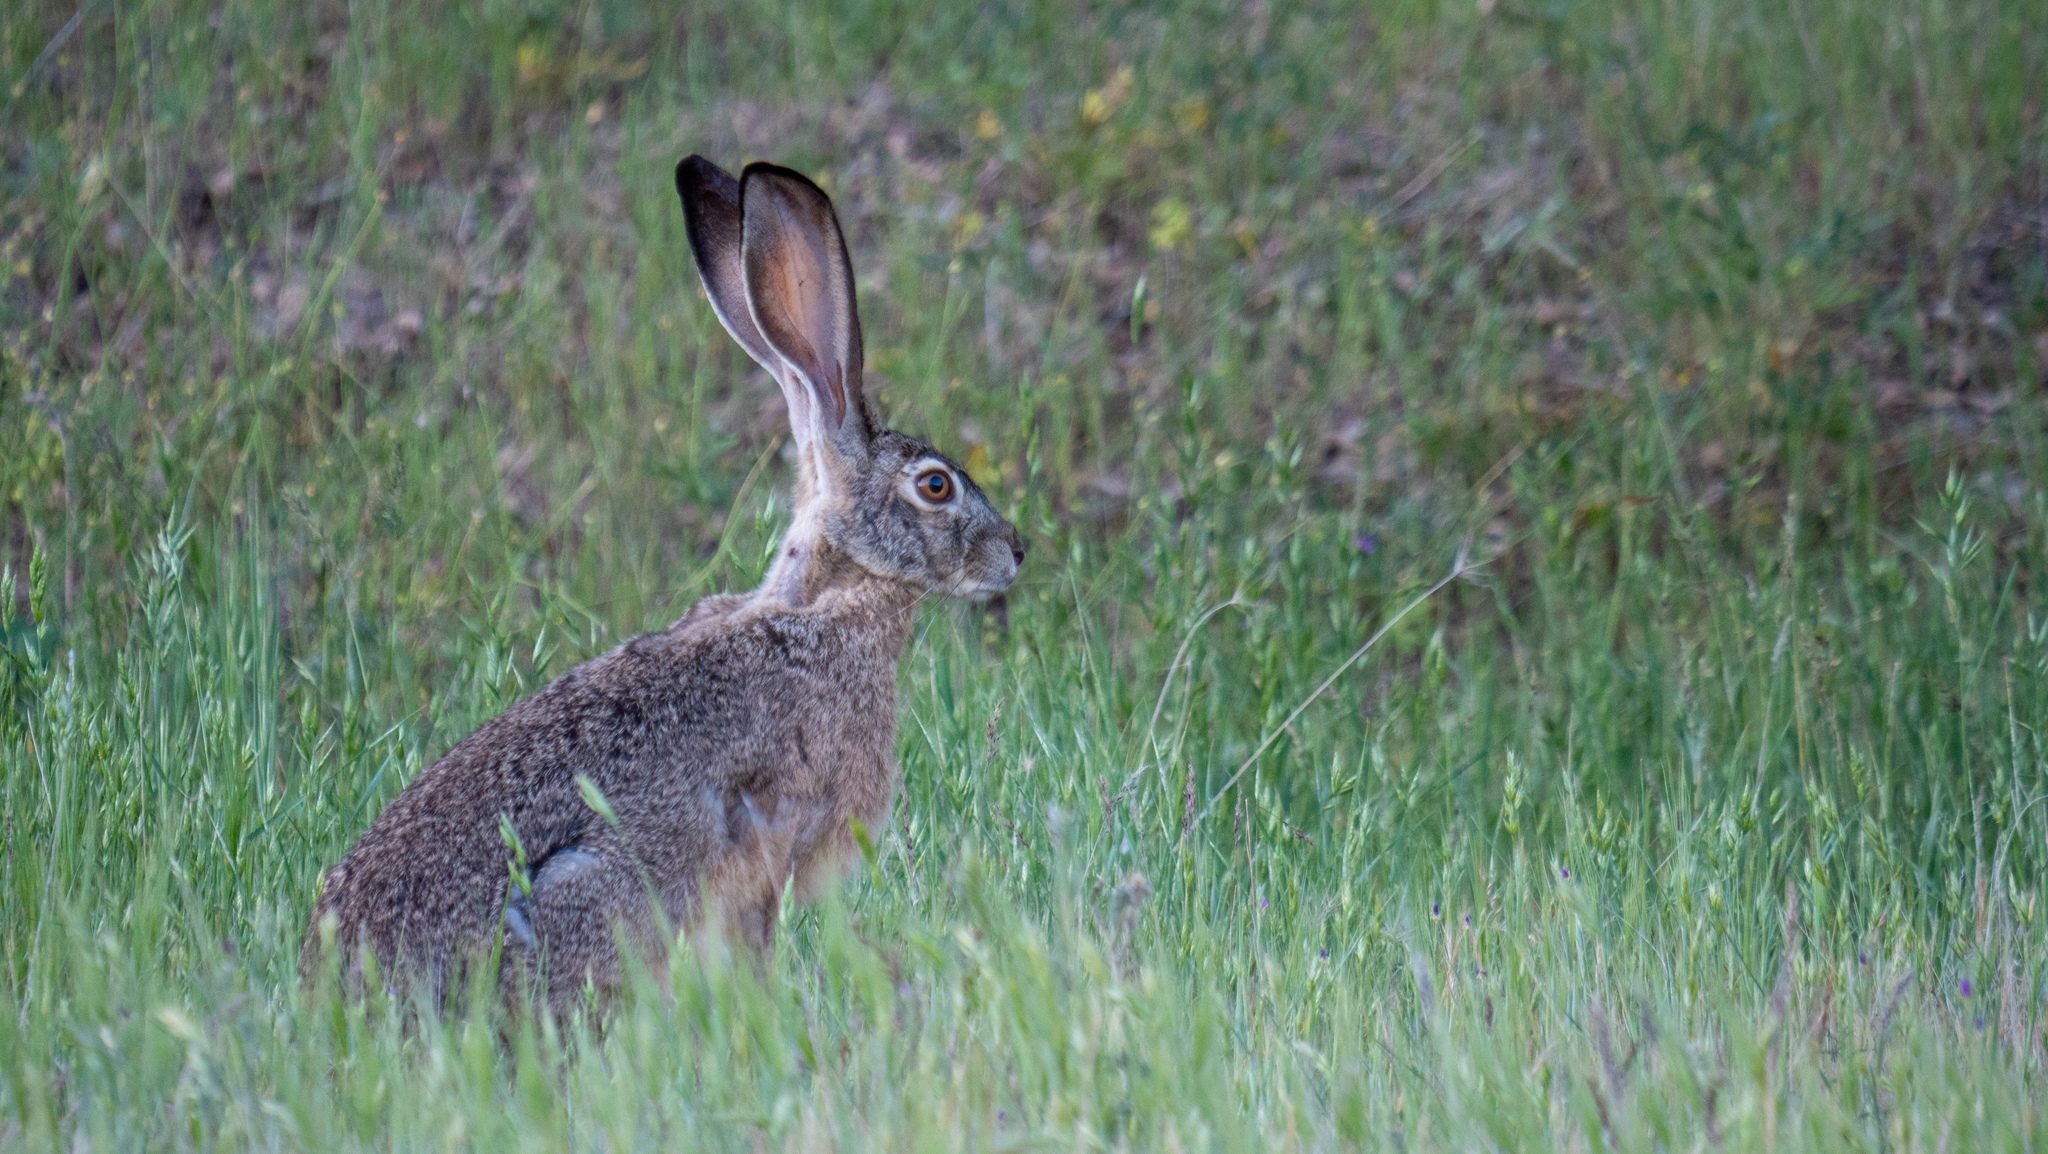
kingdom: Animalia
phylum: Chordata
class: Mammalia
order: Lagomorpha
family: Leporidae
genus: Lepus
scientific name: Lepus californicus
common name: Black-tailed jackrabbit
